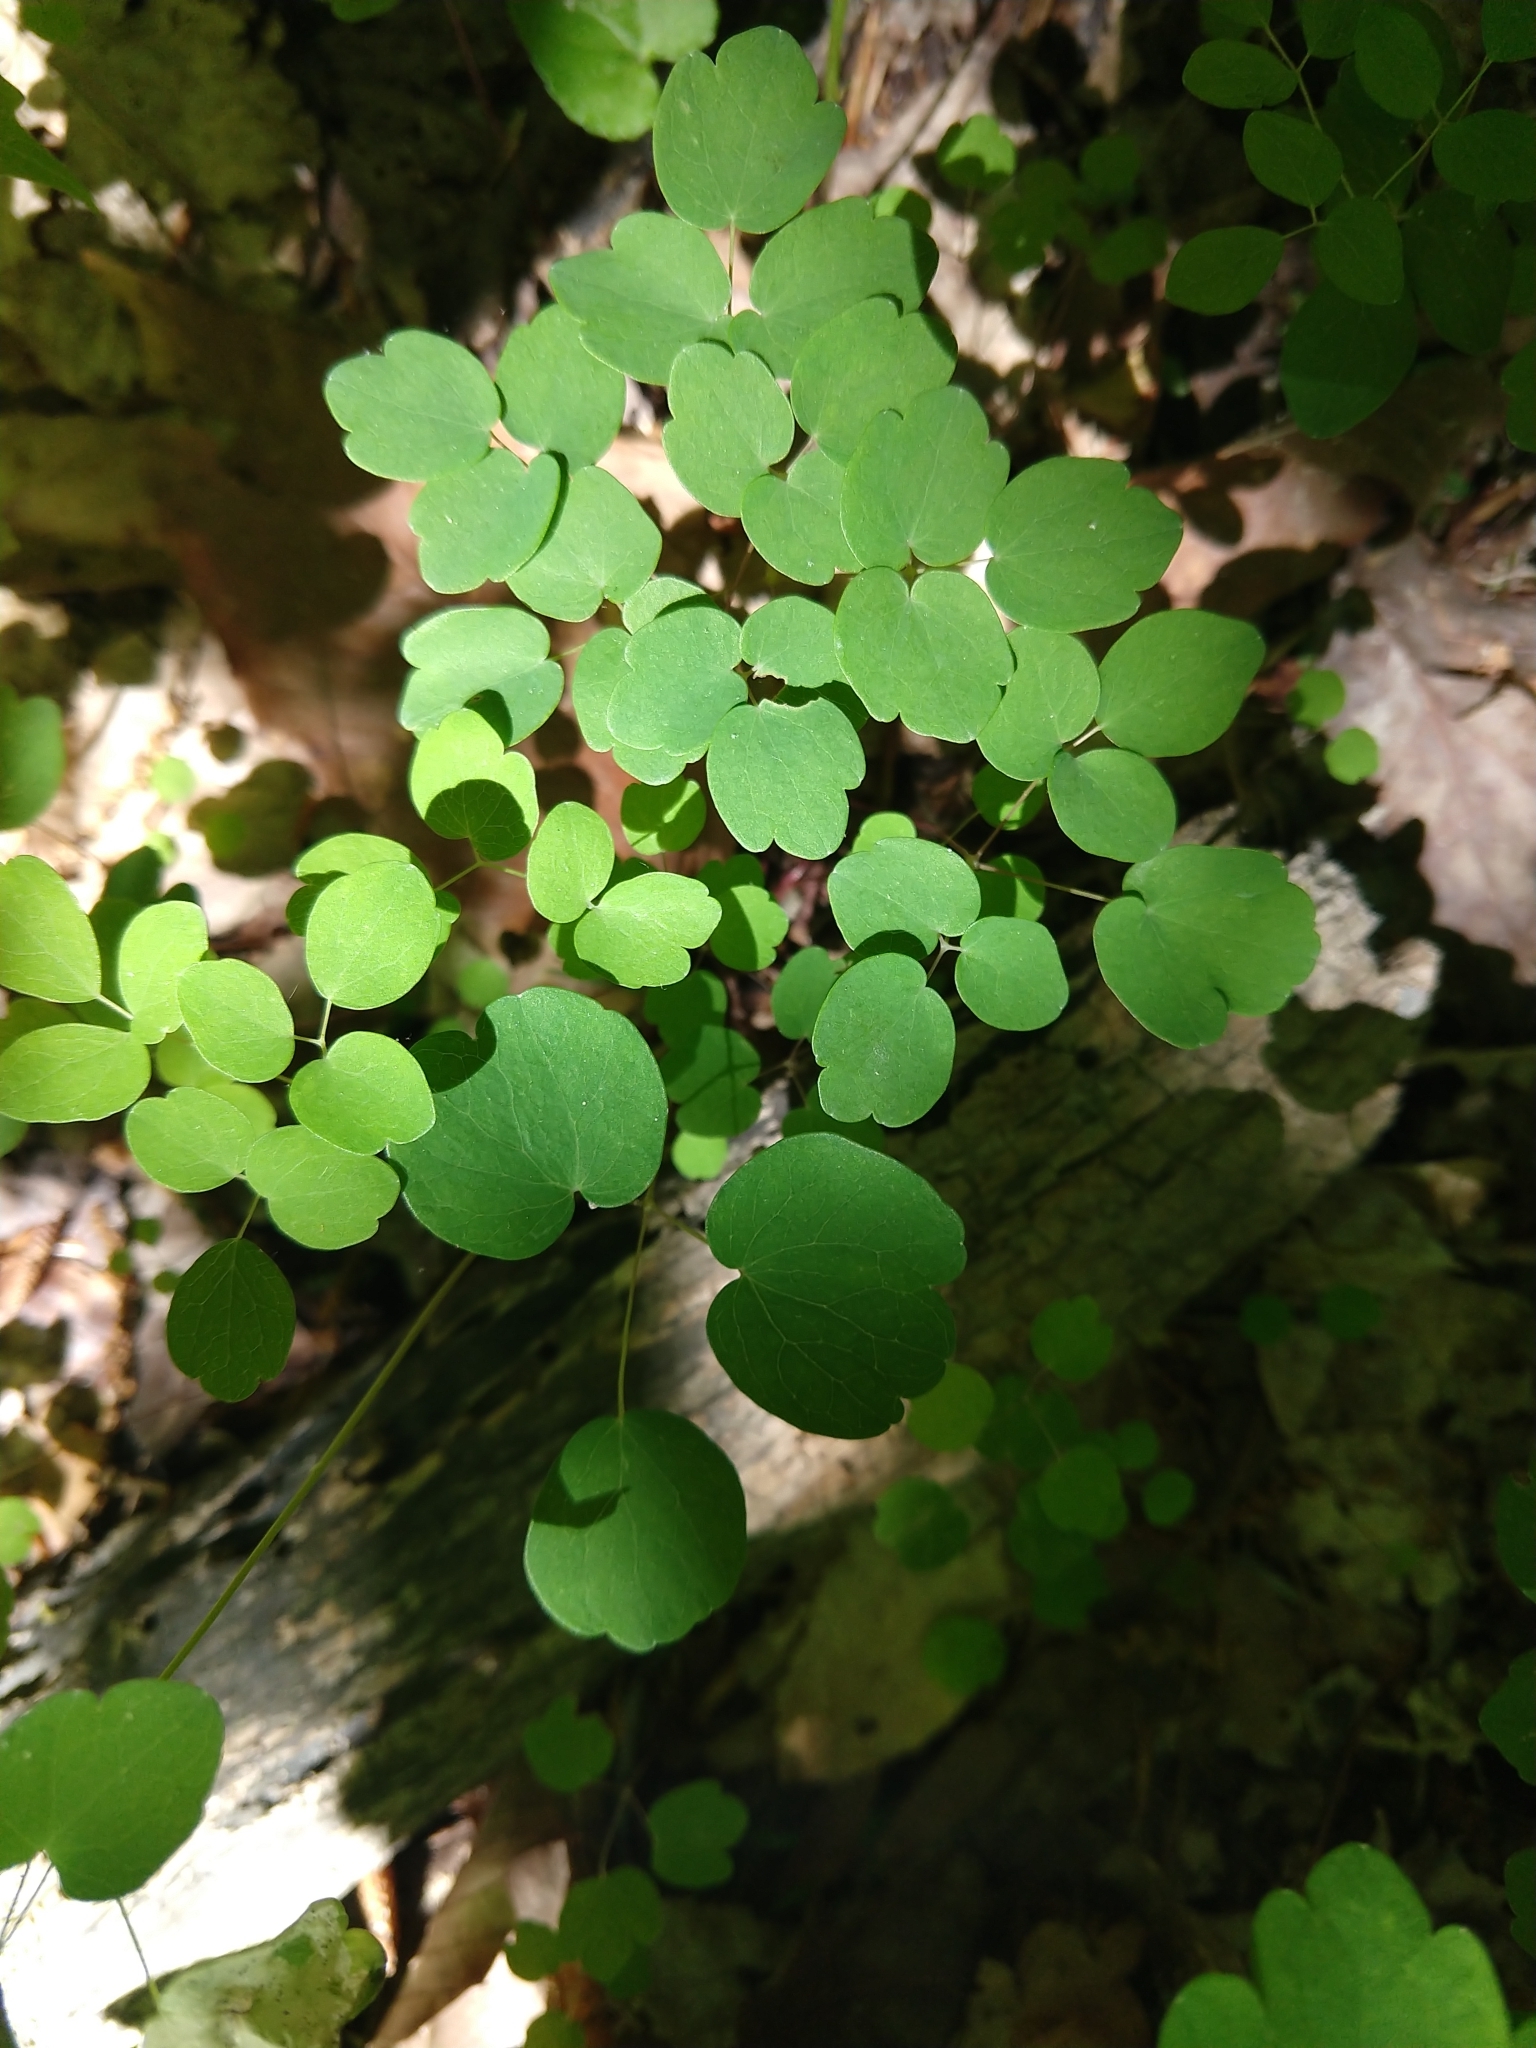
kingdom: Plantae
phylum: Tracheophyta
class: Magnoliopsida
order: Ranunculales
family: Ranunculaceae
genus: Thalictrum
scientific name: Thalictrum thalictroides
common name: Rue-anemone
